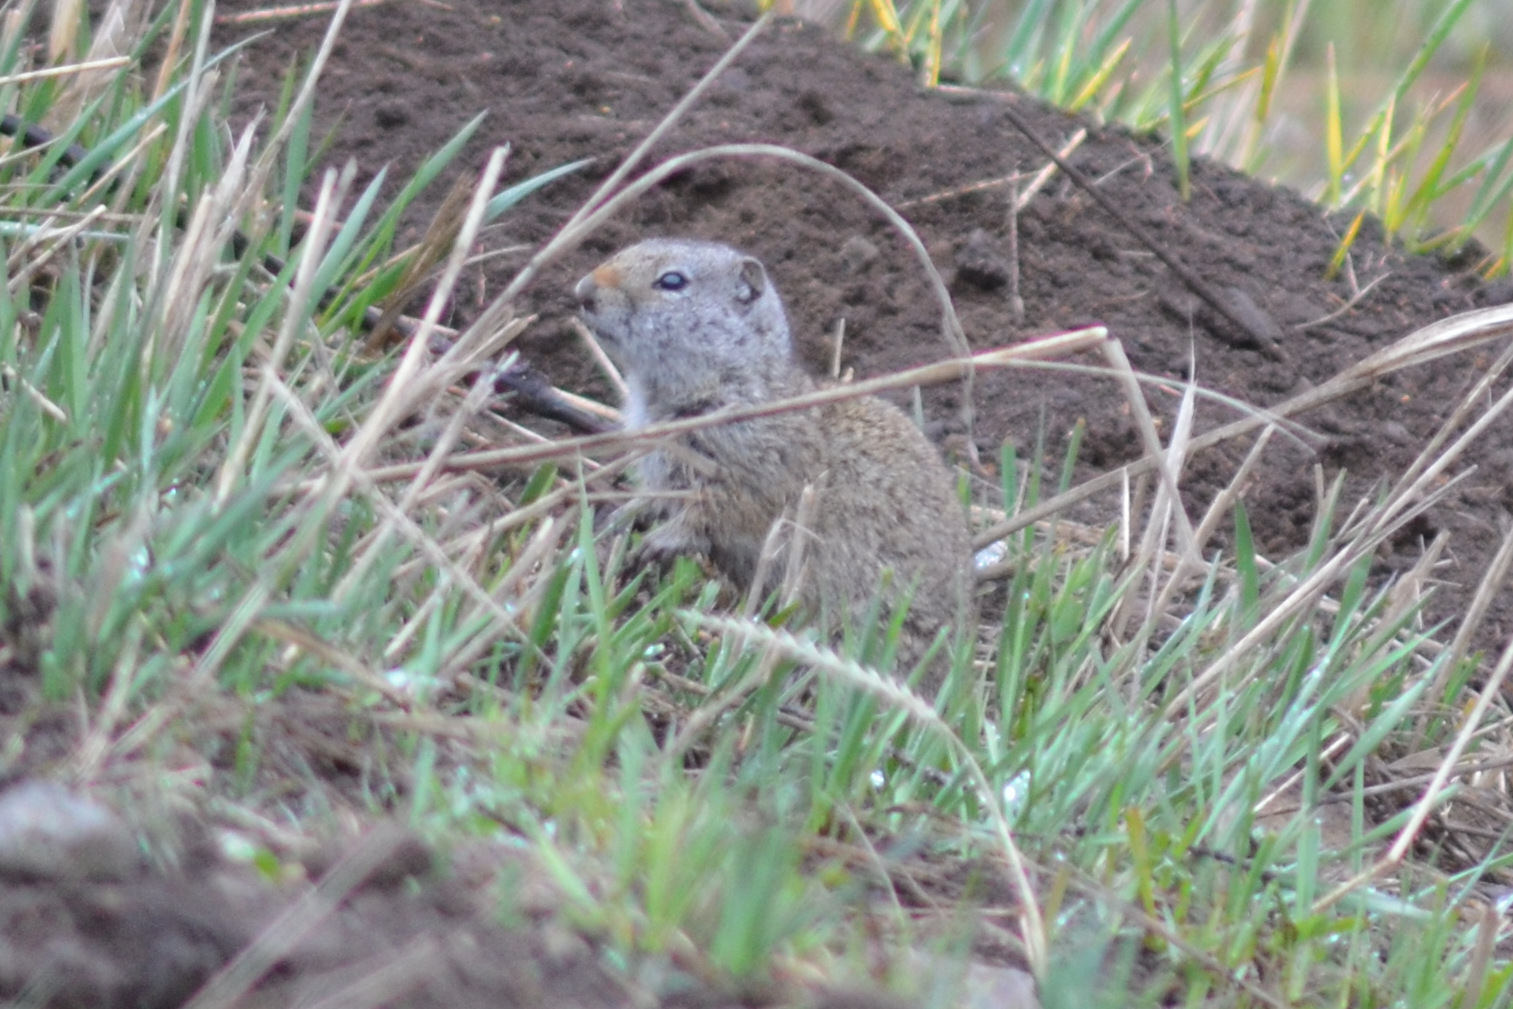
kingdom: Animalia
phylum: Chordata
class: Mammalia
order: Rodentia
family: Sciuridae
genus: Urocitellus
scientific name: Urocitellus armatus
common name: Uinta ground squirrel
